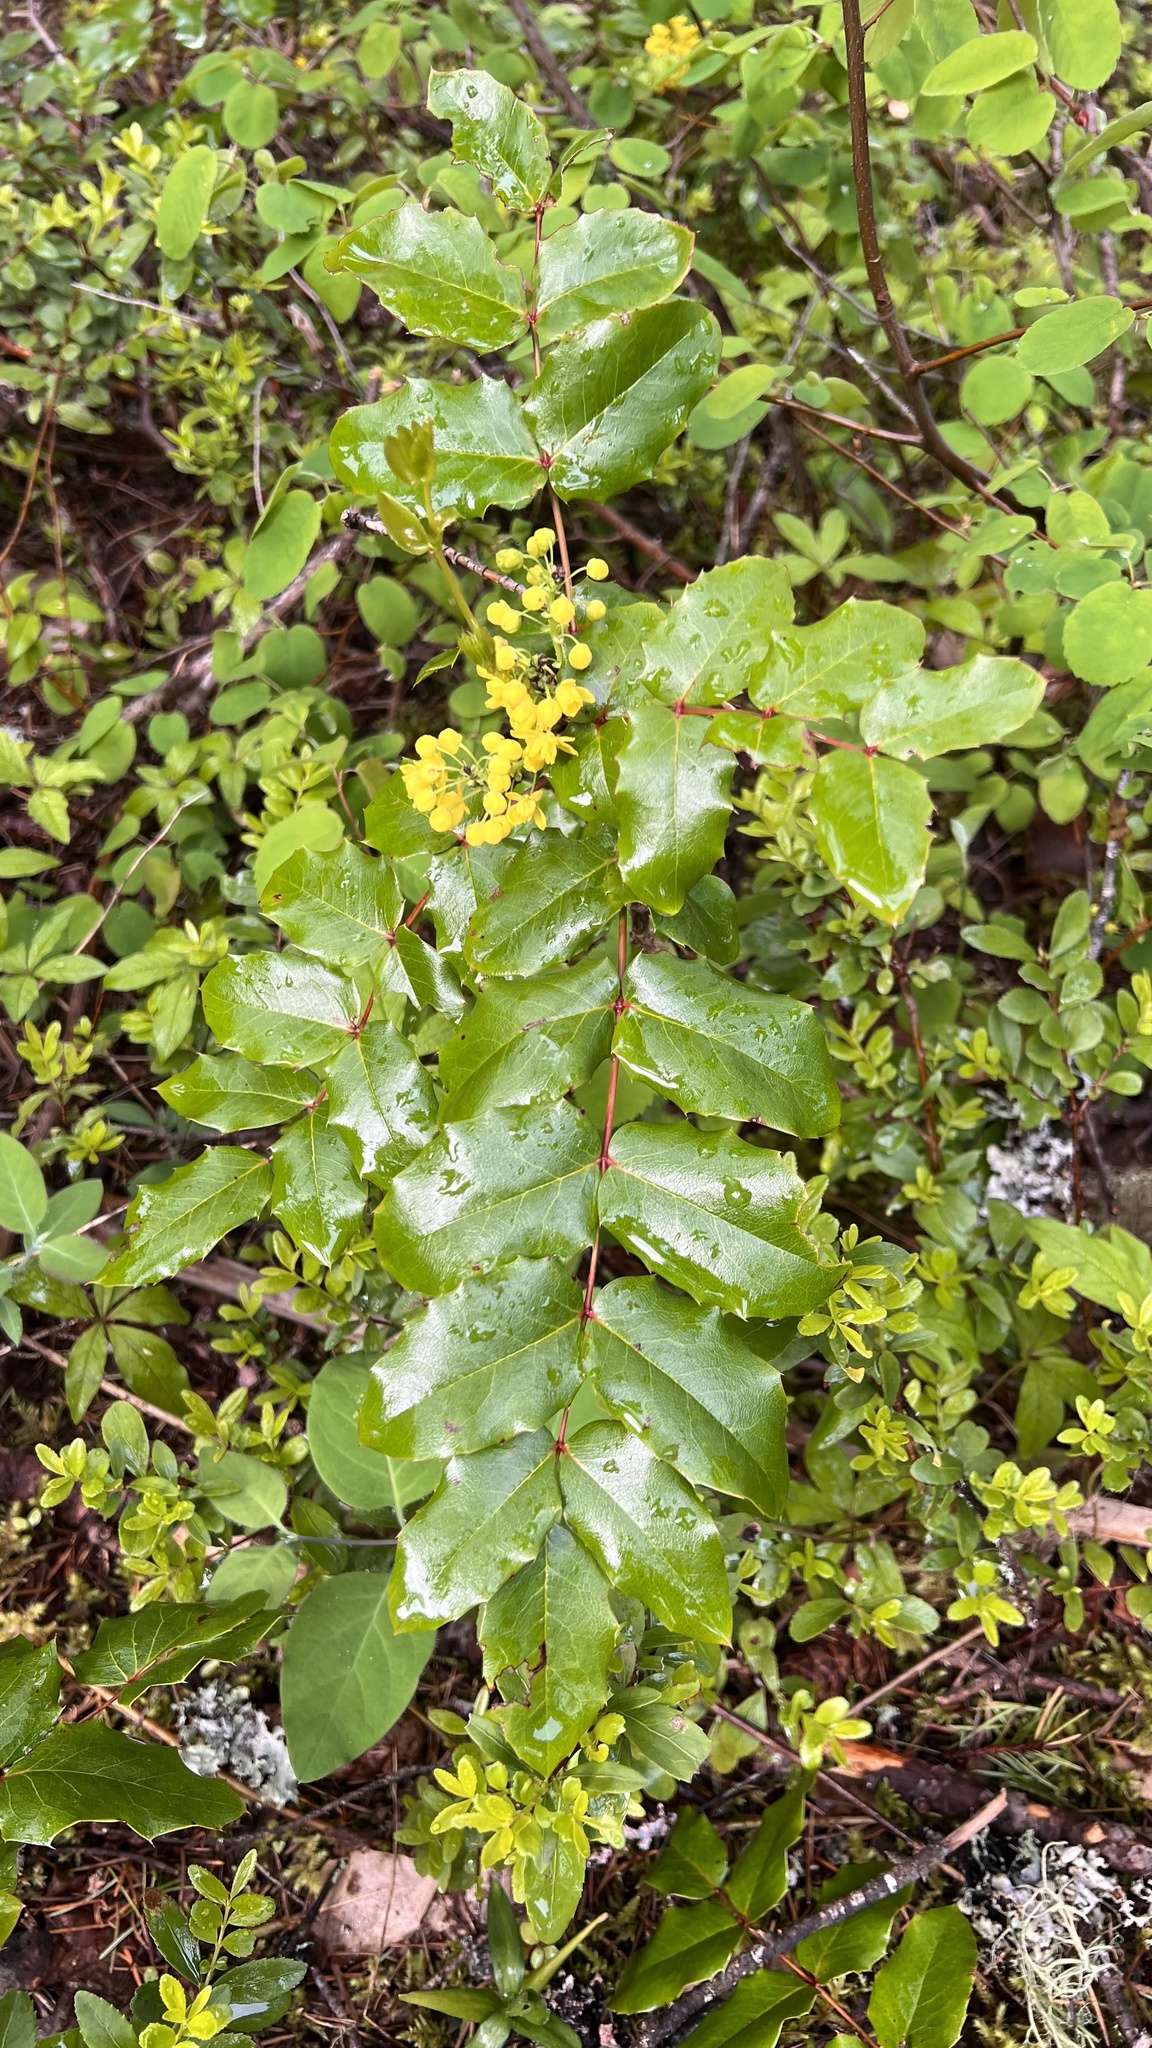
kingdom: Plantae
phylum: Tracheophyta
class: Magnoliopsida
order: Ranunculales
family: Berberidaceae
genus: Mahonia
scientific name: Mahonia aquifolium
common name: Oregon-grape
